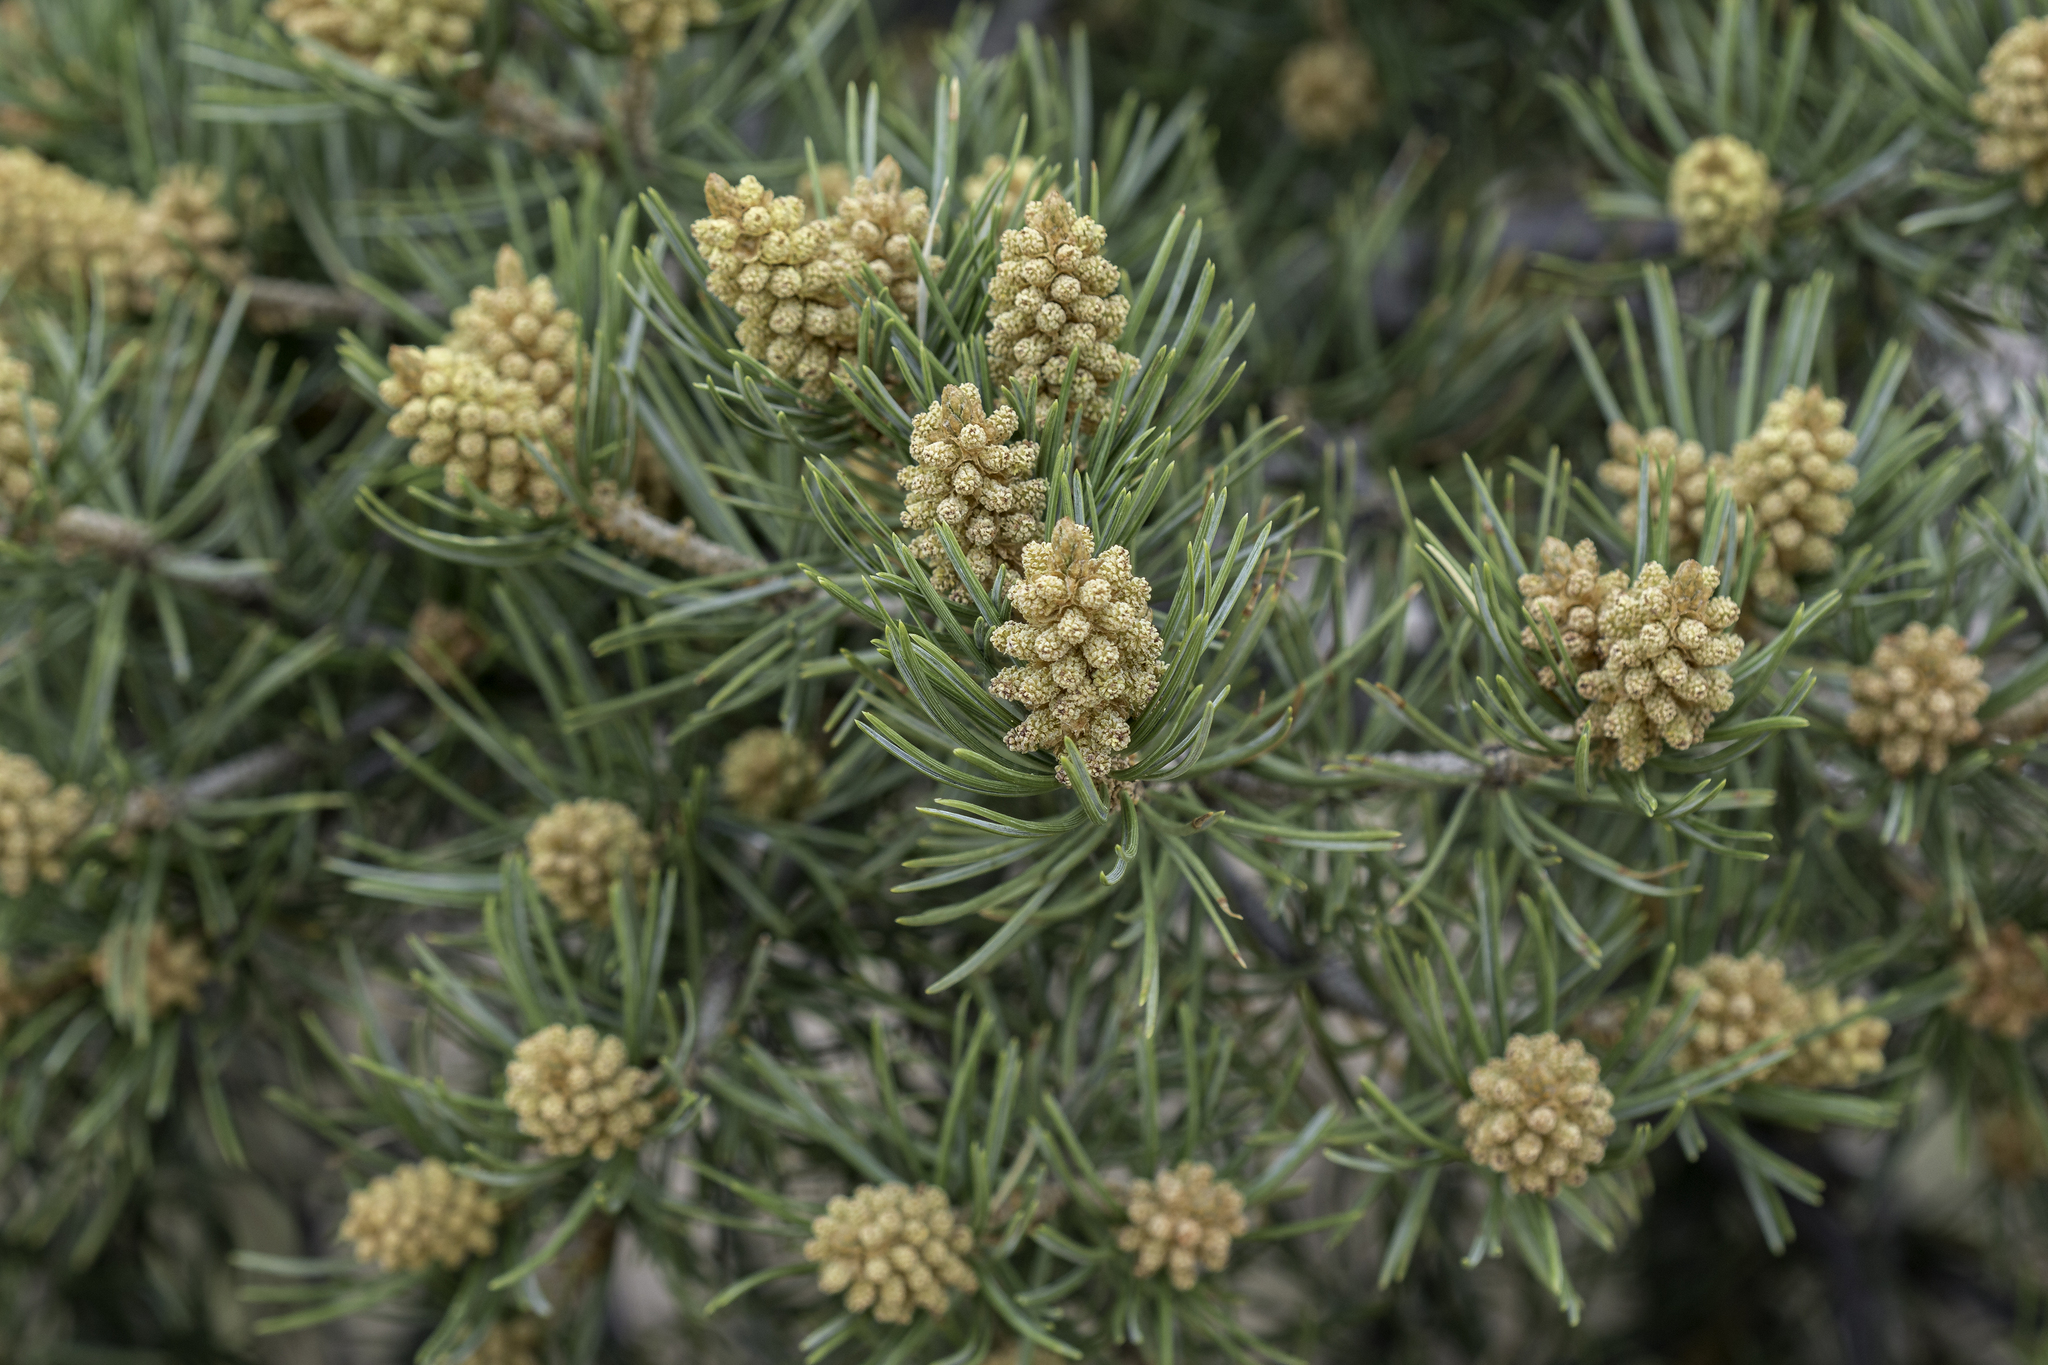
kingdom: Plantae
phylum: Tracheophyta
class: Pinopsida
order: Pinales
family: Pinaceae
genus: Pinus
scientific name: Pinus edulis
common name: Colorado pinyon
